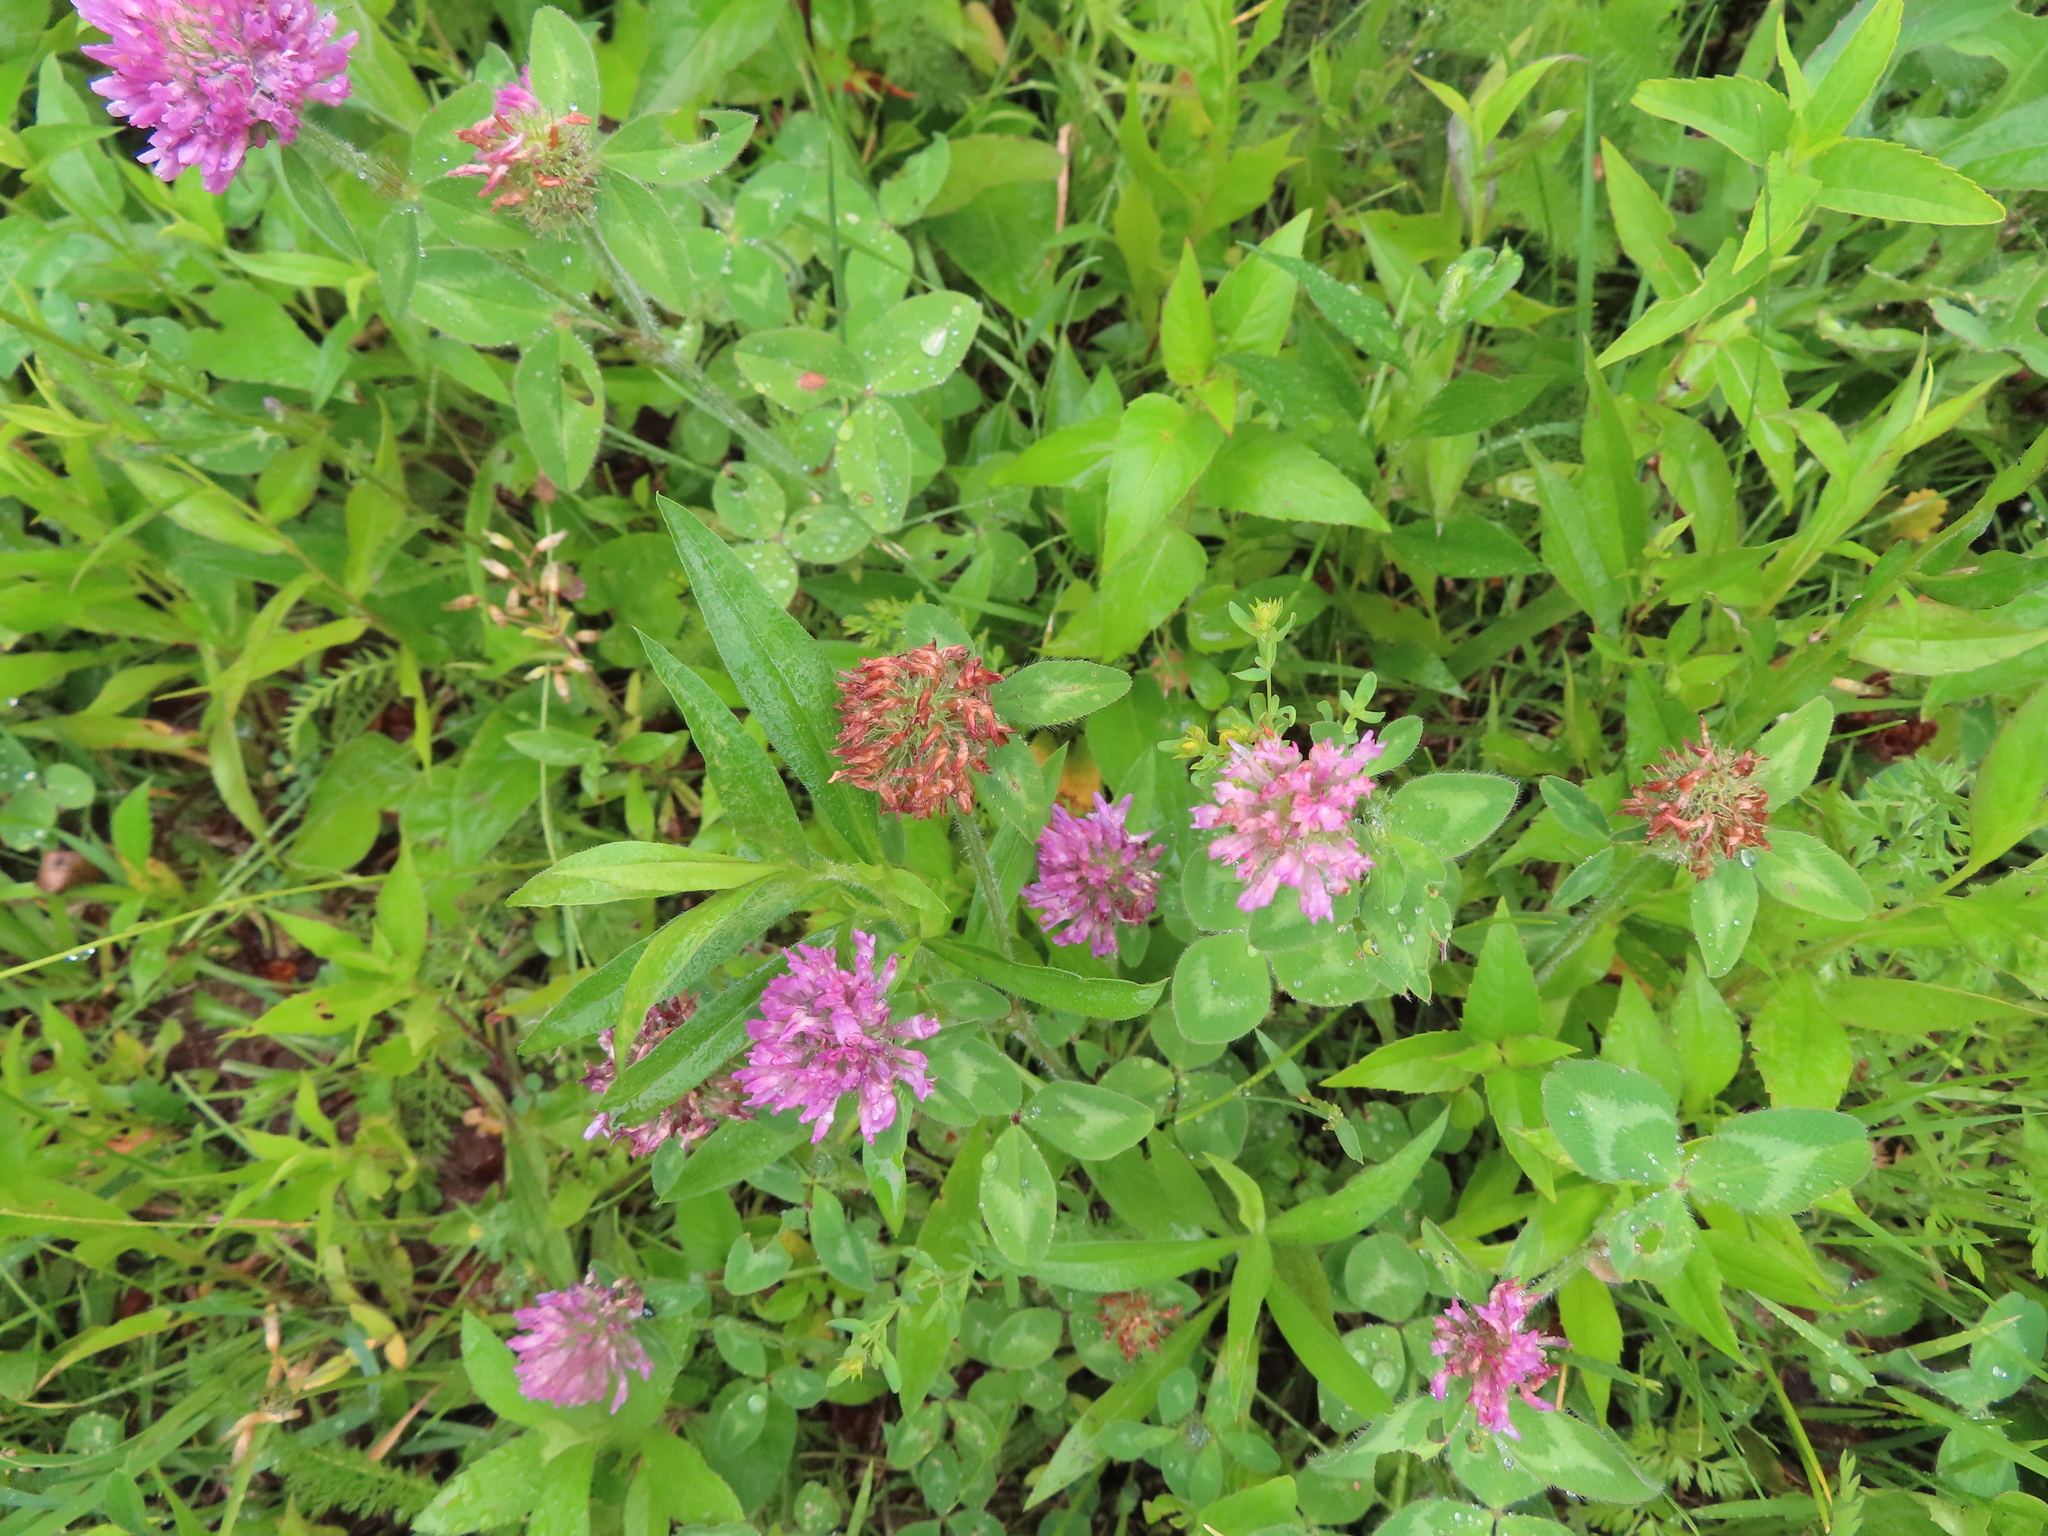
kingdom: Plantae
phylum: Tracheophyta
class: Magnoliopsida
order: Fabales
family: Fabaceae
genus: Trifolium
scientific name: Trifolium pratense
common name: Red clover
